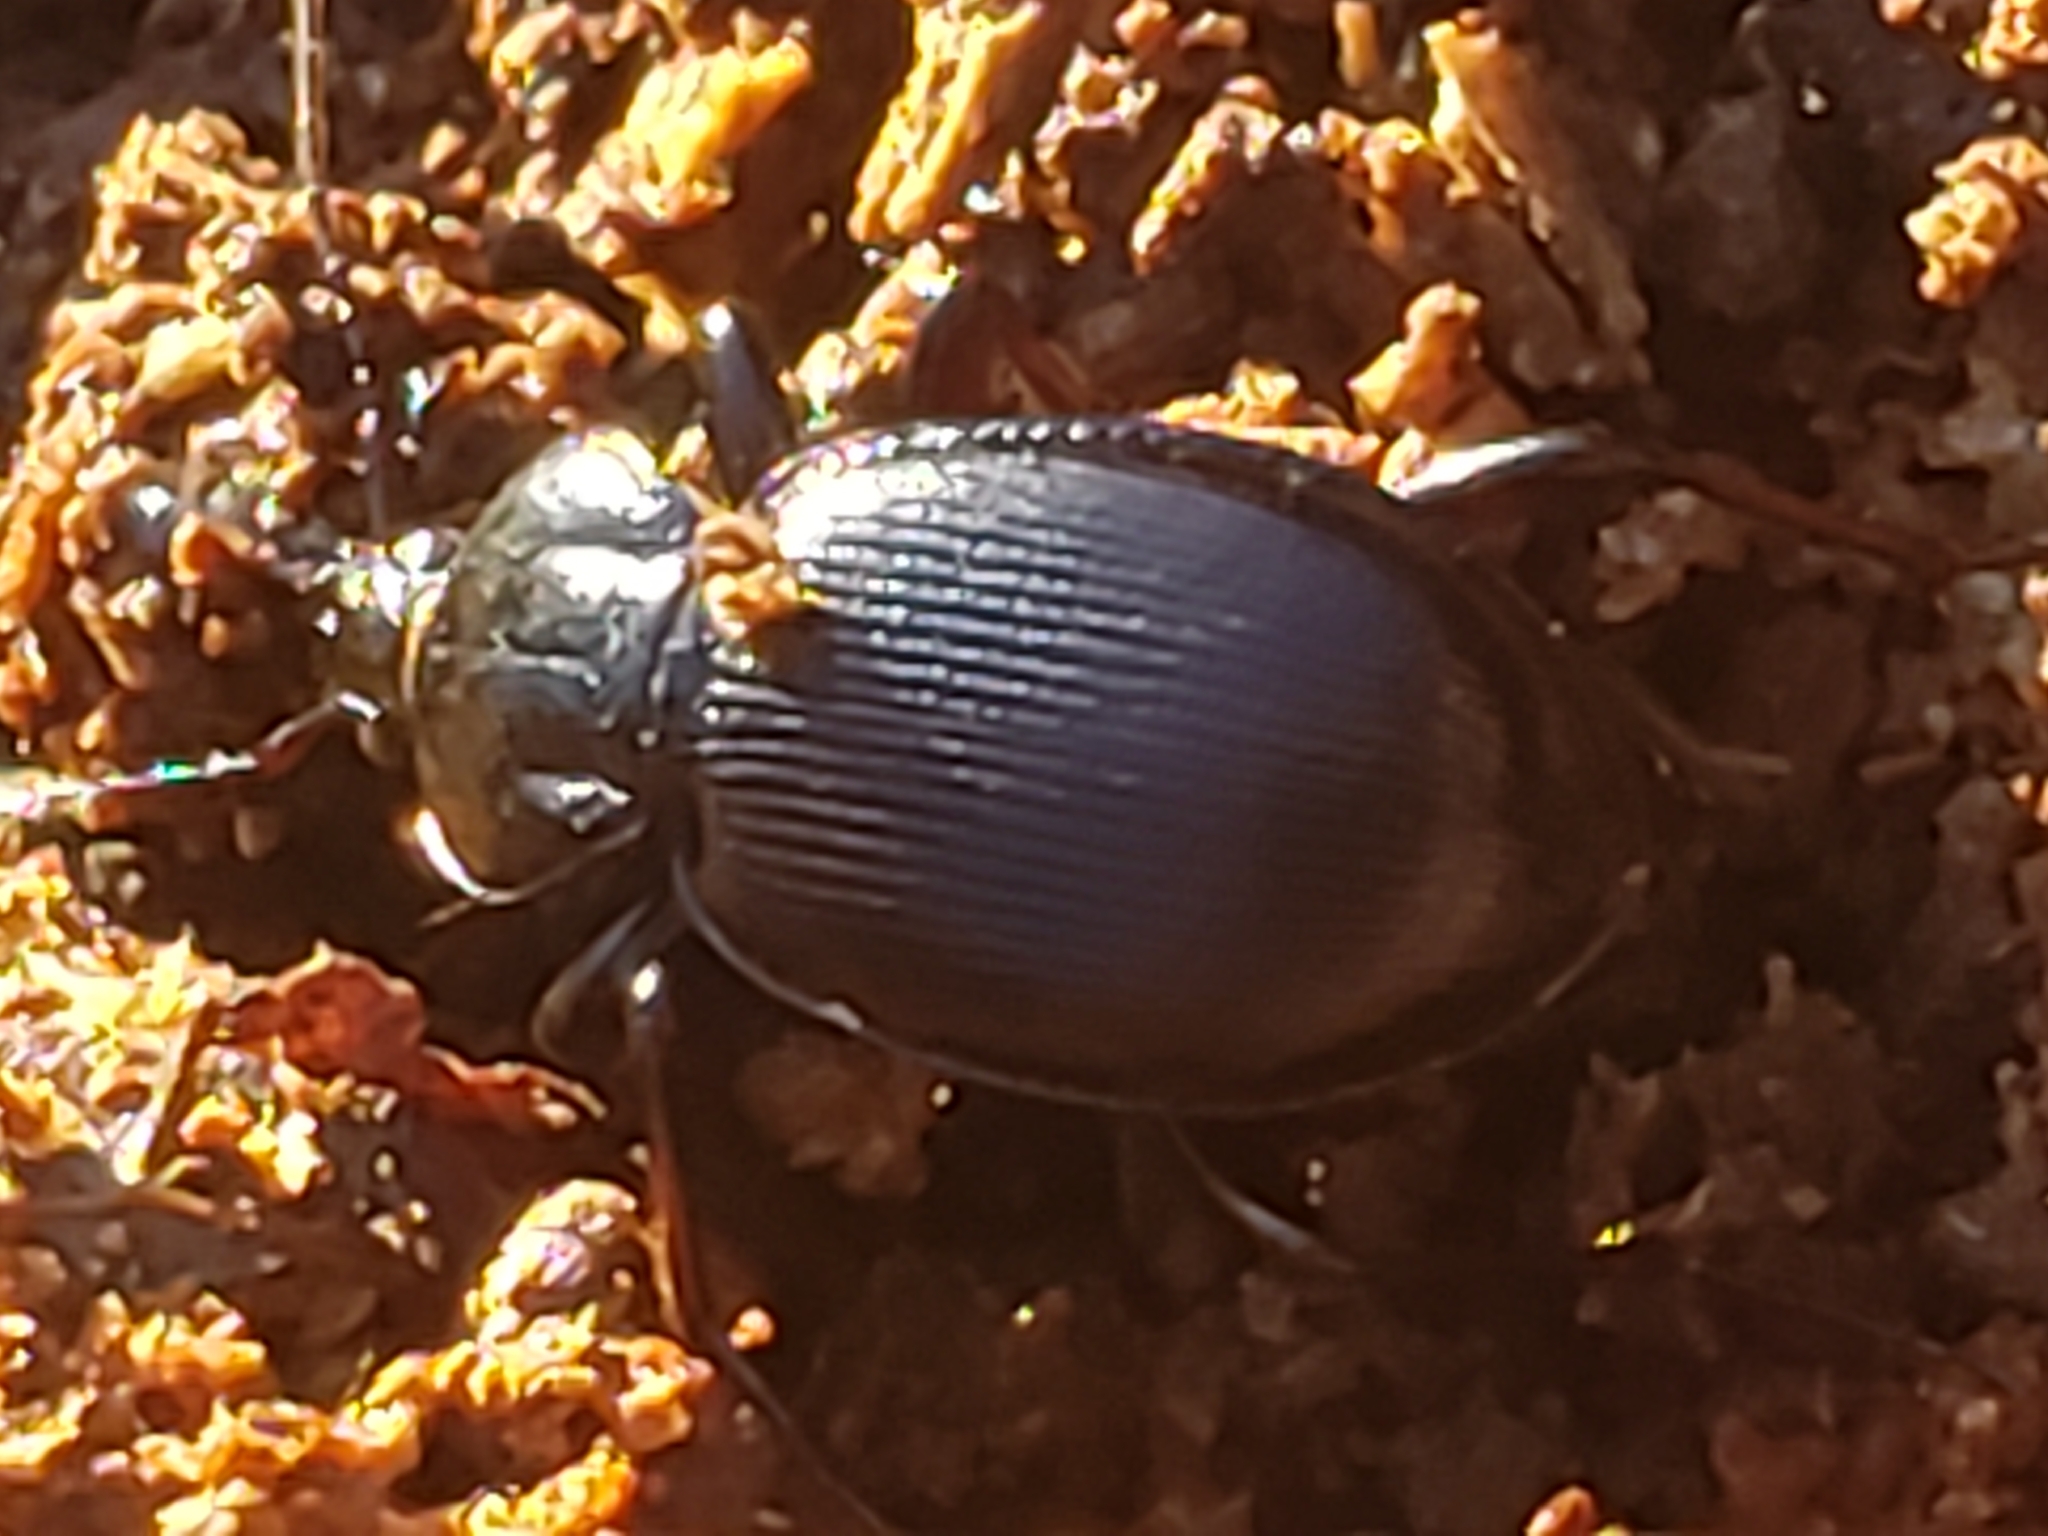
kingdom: Animalia
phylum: Arthropoda
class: Insecta
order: Coleoptera
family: Carabidae
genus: Sphaeroderus
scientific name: Sphaeroderus stenostomus
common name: Small snail-eating ground beetle
